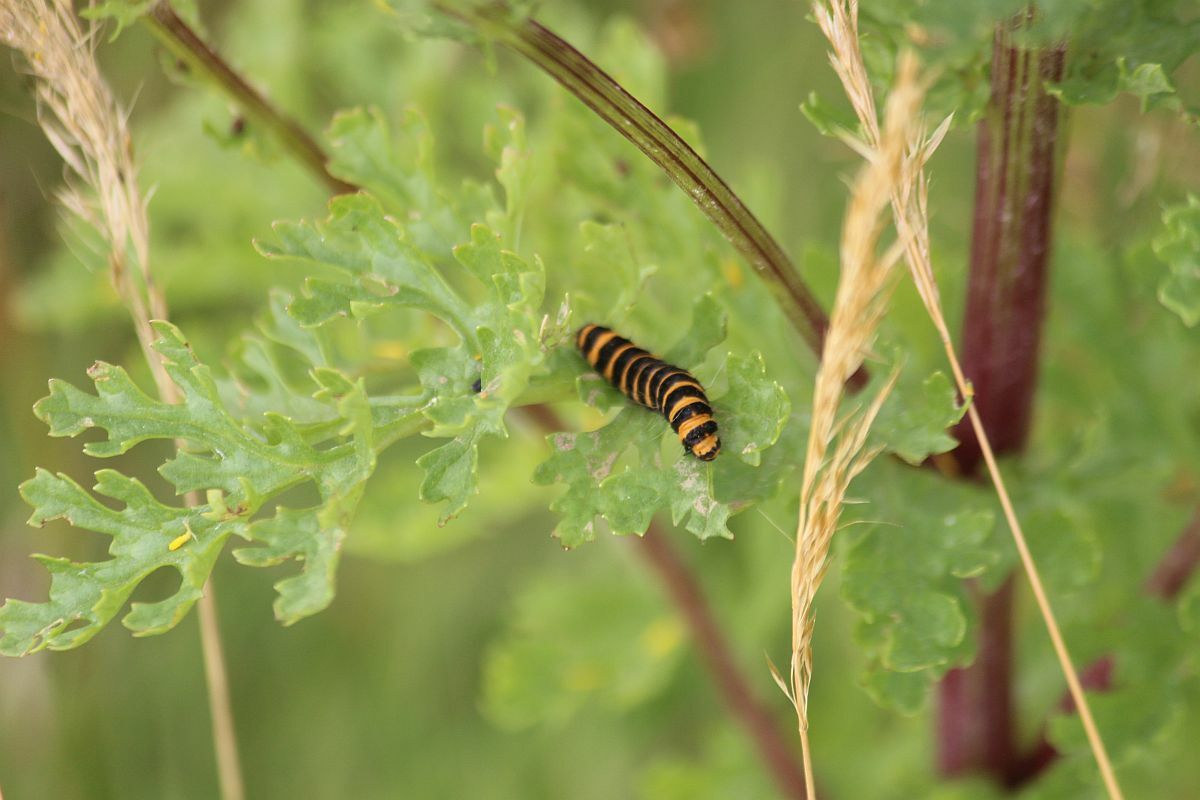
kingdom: Animalia
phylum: Arthropoda
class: Insecta
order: Lepidoptera
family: Erebidae
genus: Tyria
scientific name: Tyria jacobaeae
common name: Cinnabar
